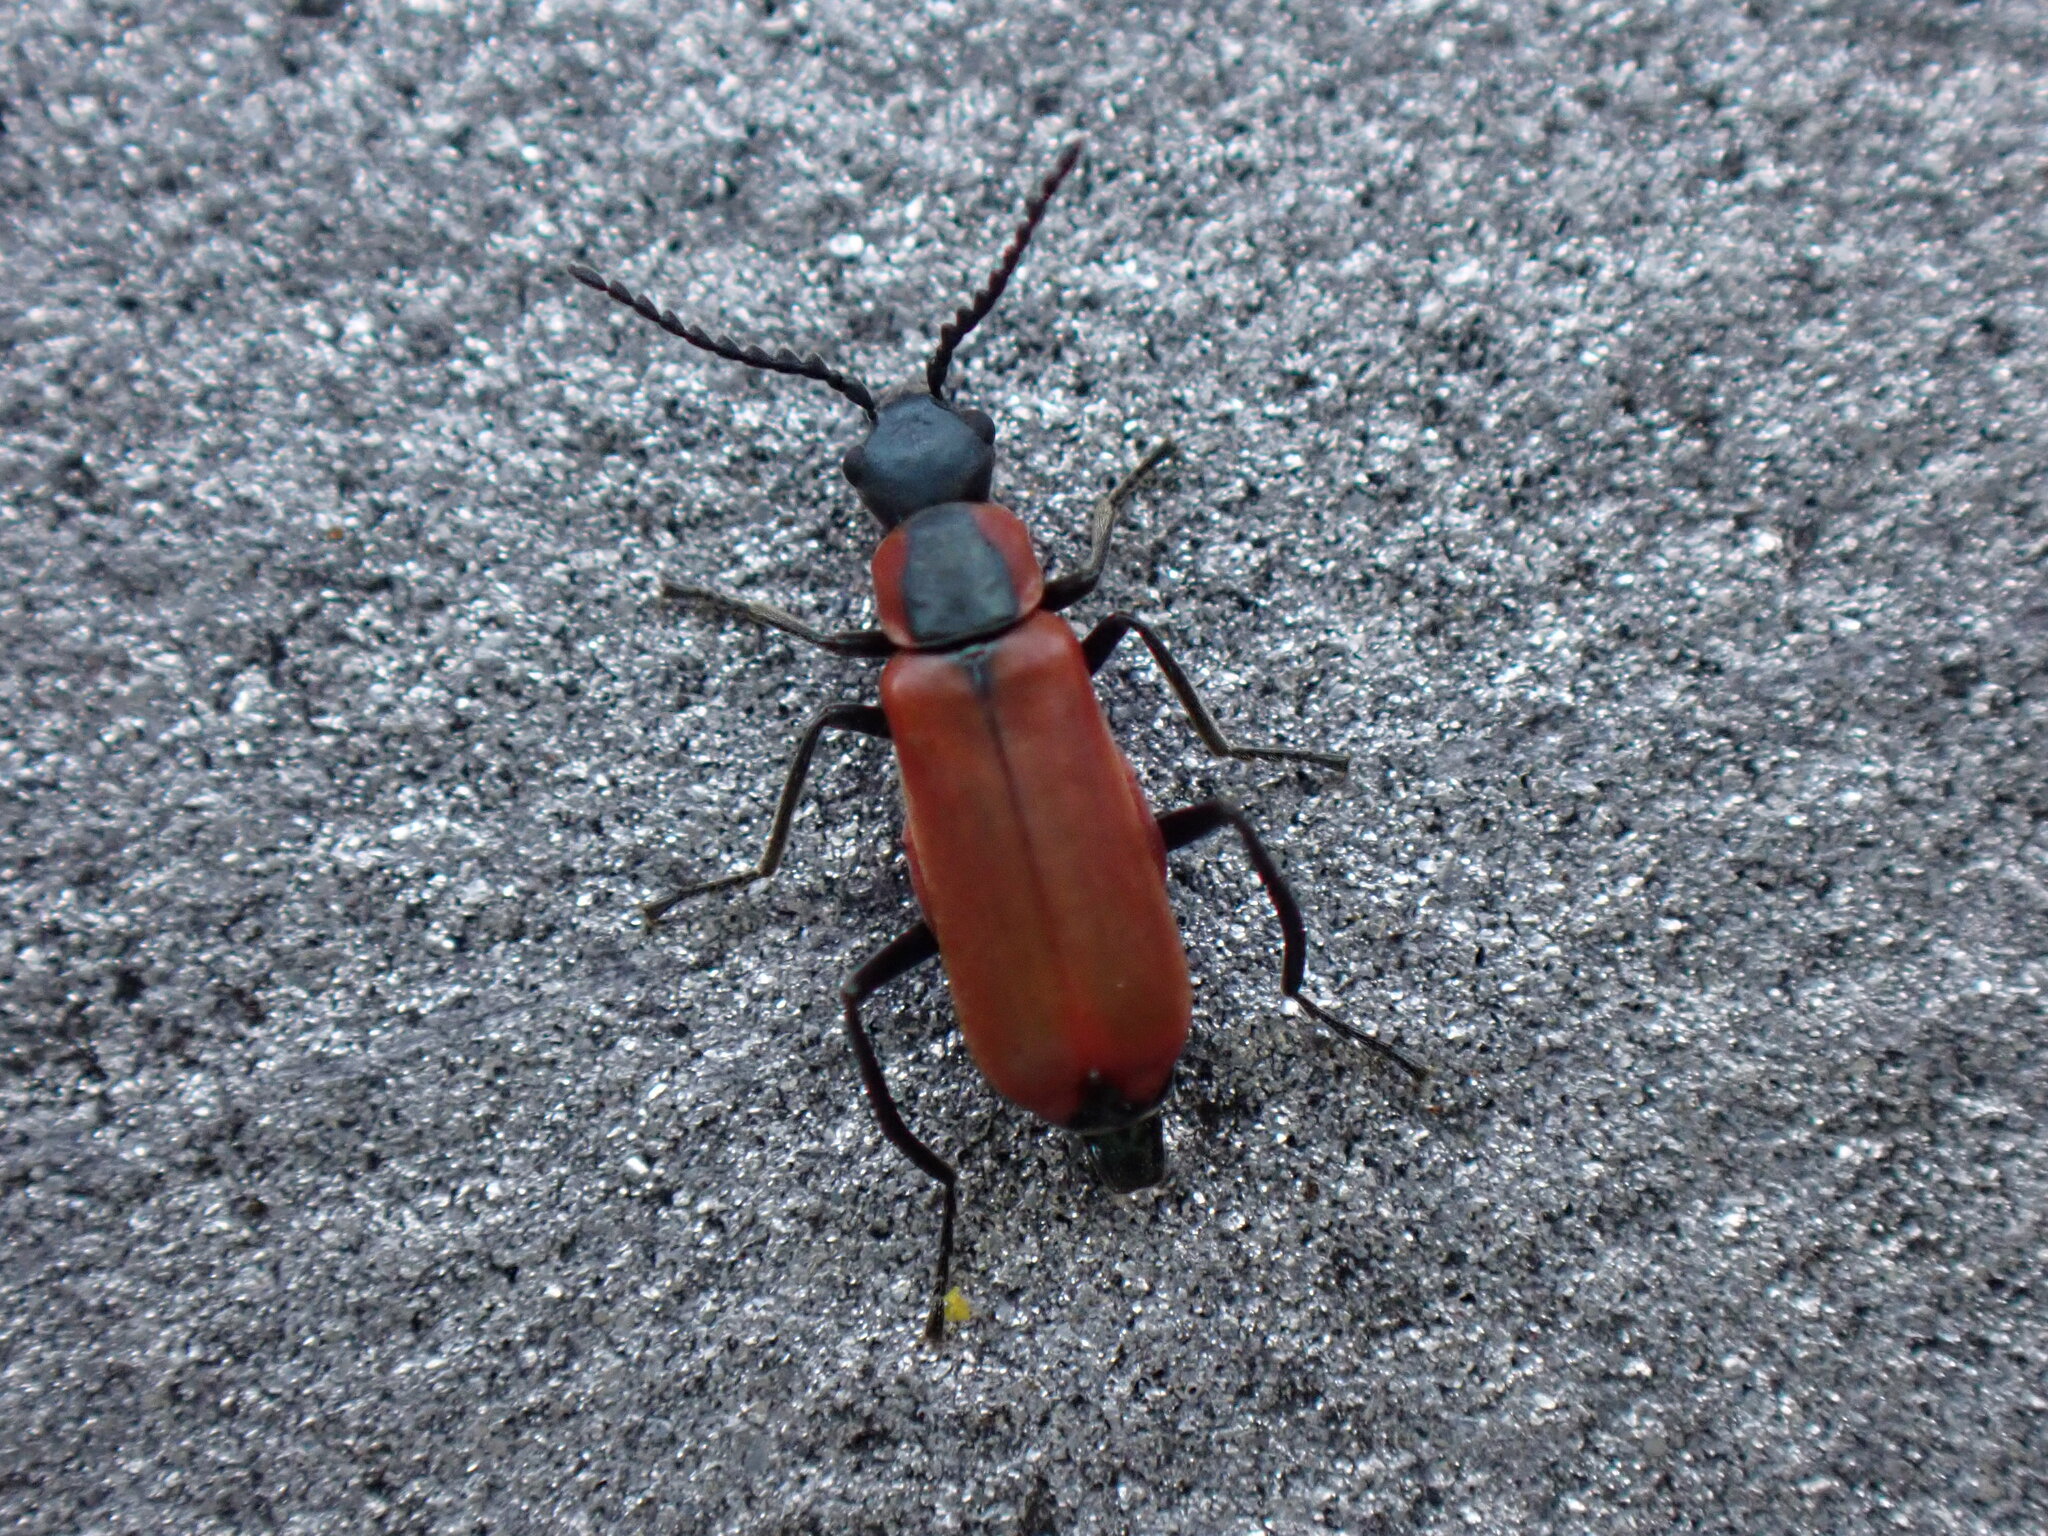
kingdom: Animalia
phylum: Arthropoda
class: Insecta
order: Coleoptera
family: Melyridae
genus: Anthocomus
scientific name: Anthocomus rufus
